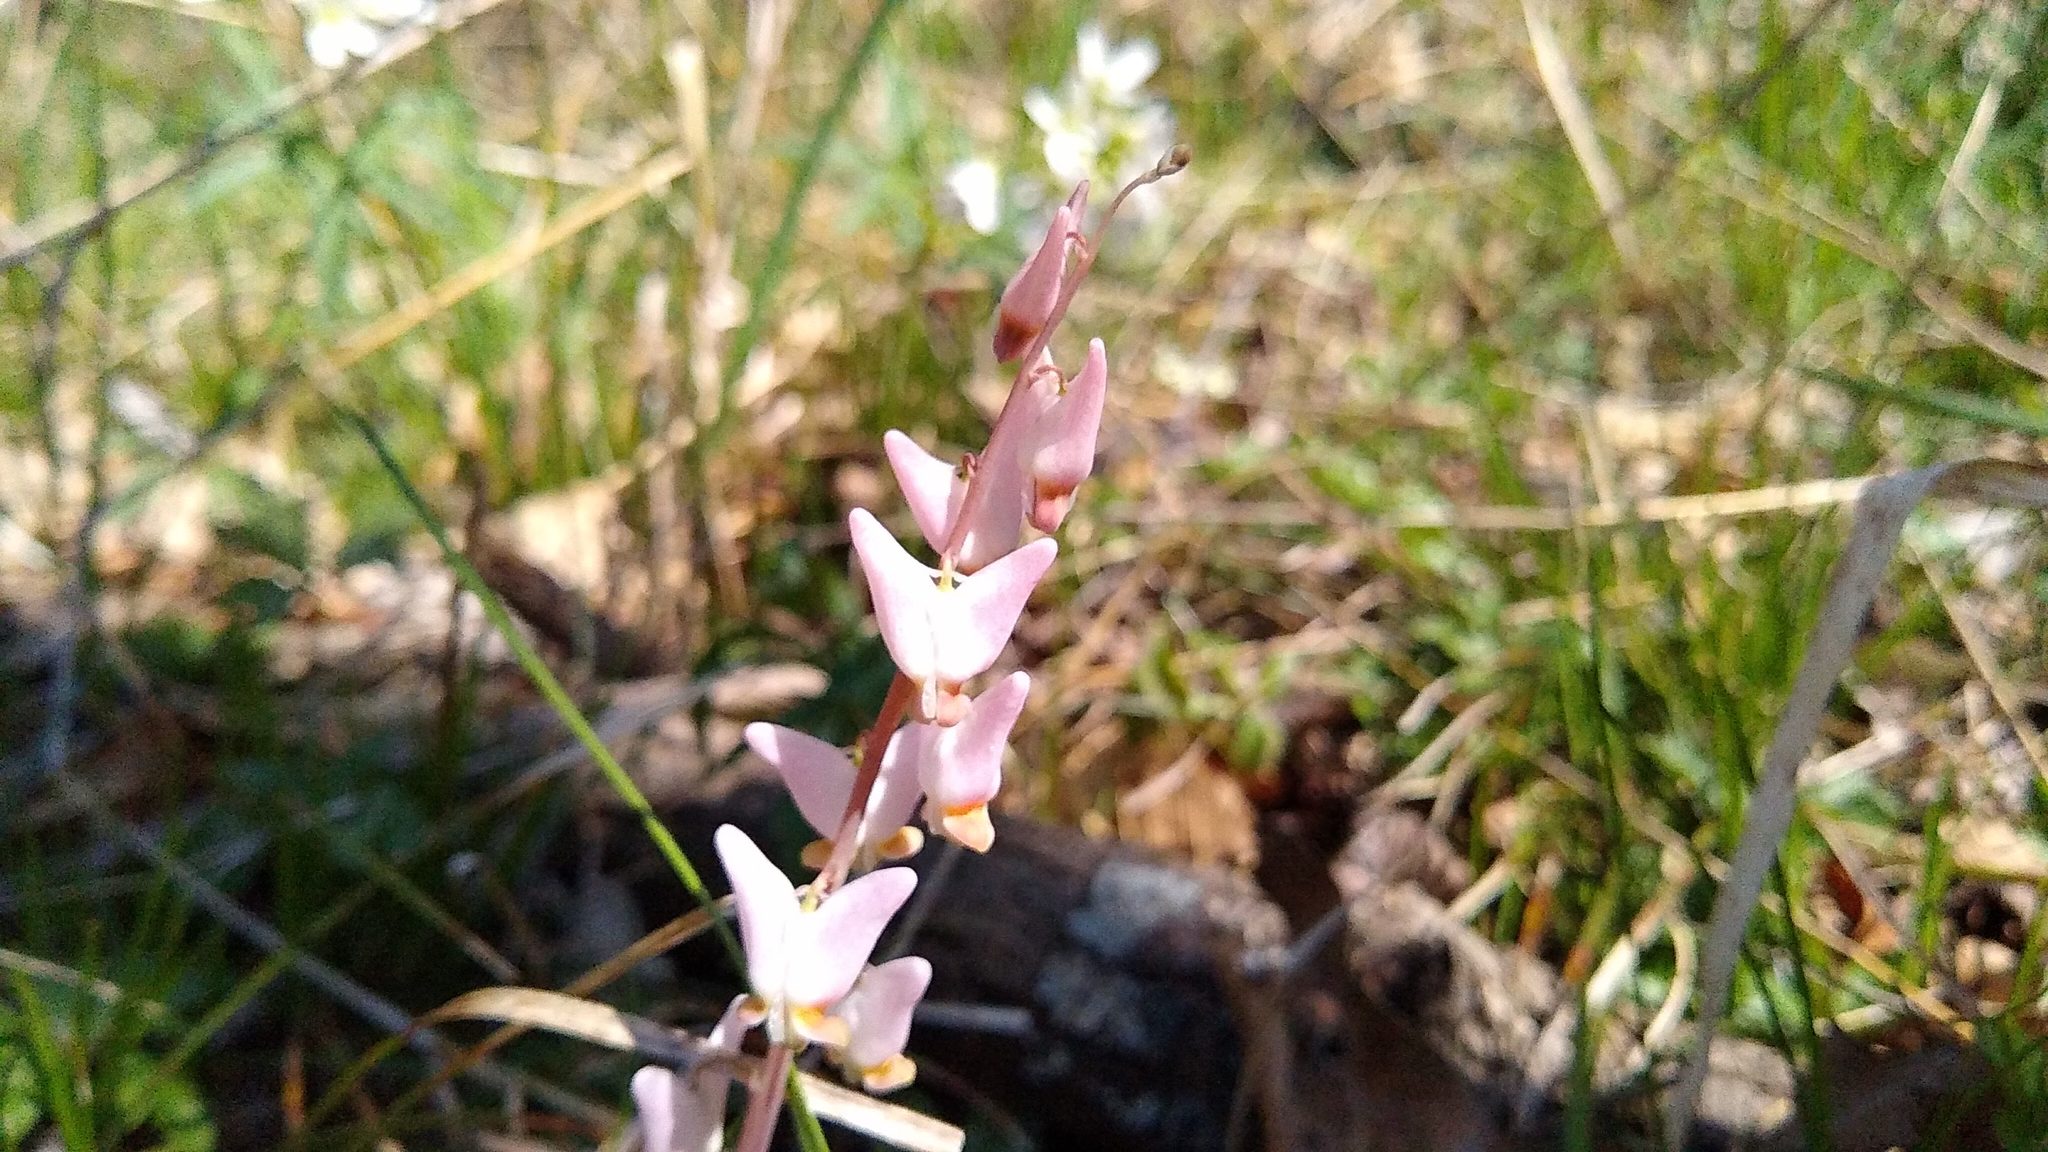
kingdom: Plantae
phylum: Tracheophyta
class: Magnoliopsida
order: Ranunculales
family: Papaveraceae
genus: Dicentra
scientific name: Dicentra cucullaria
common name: Dutchman's breeches
